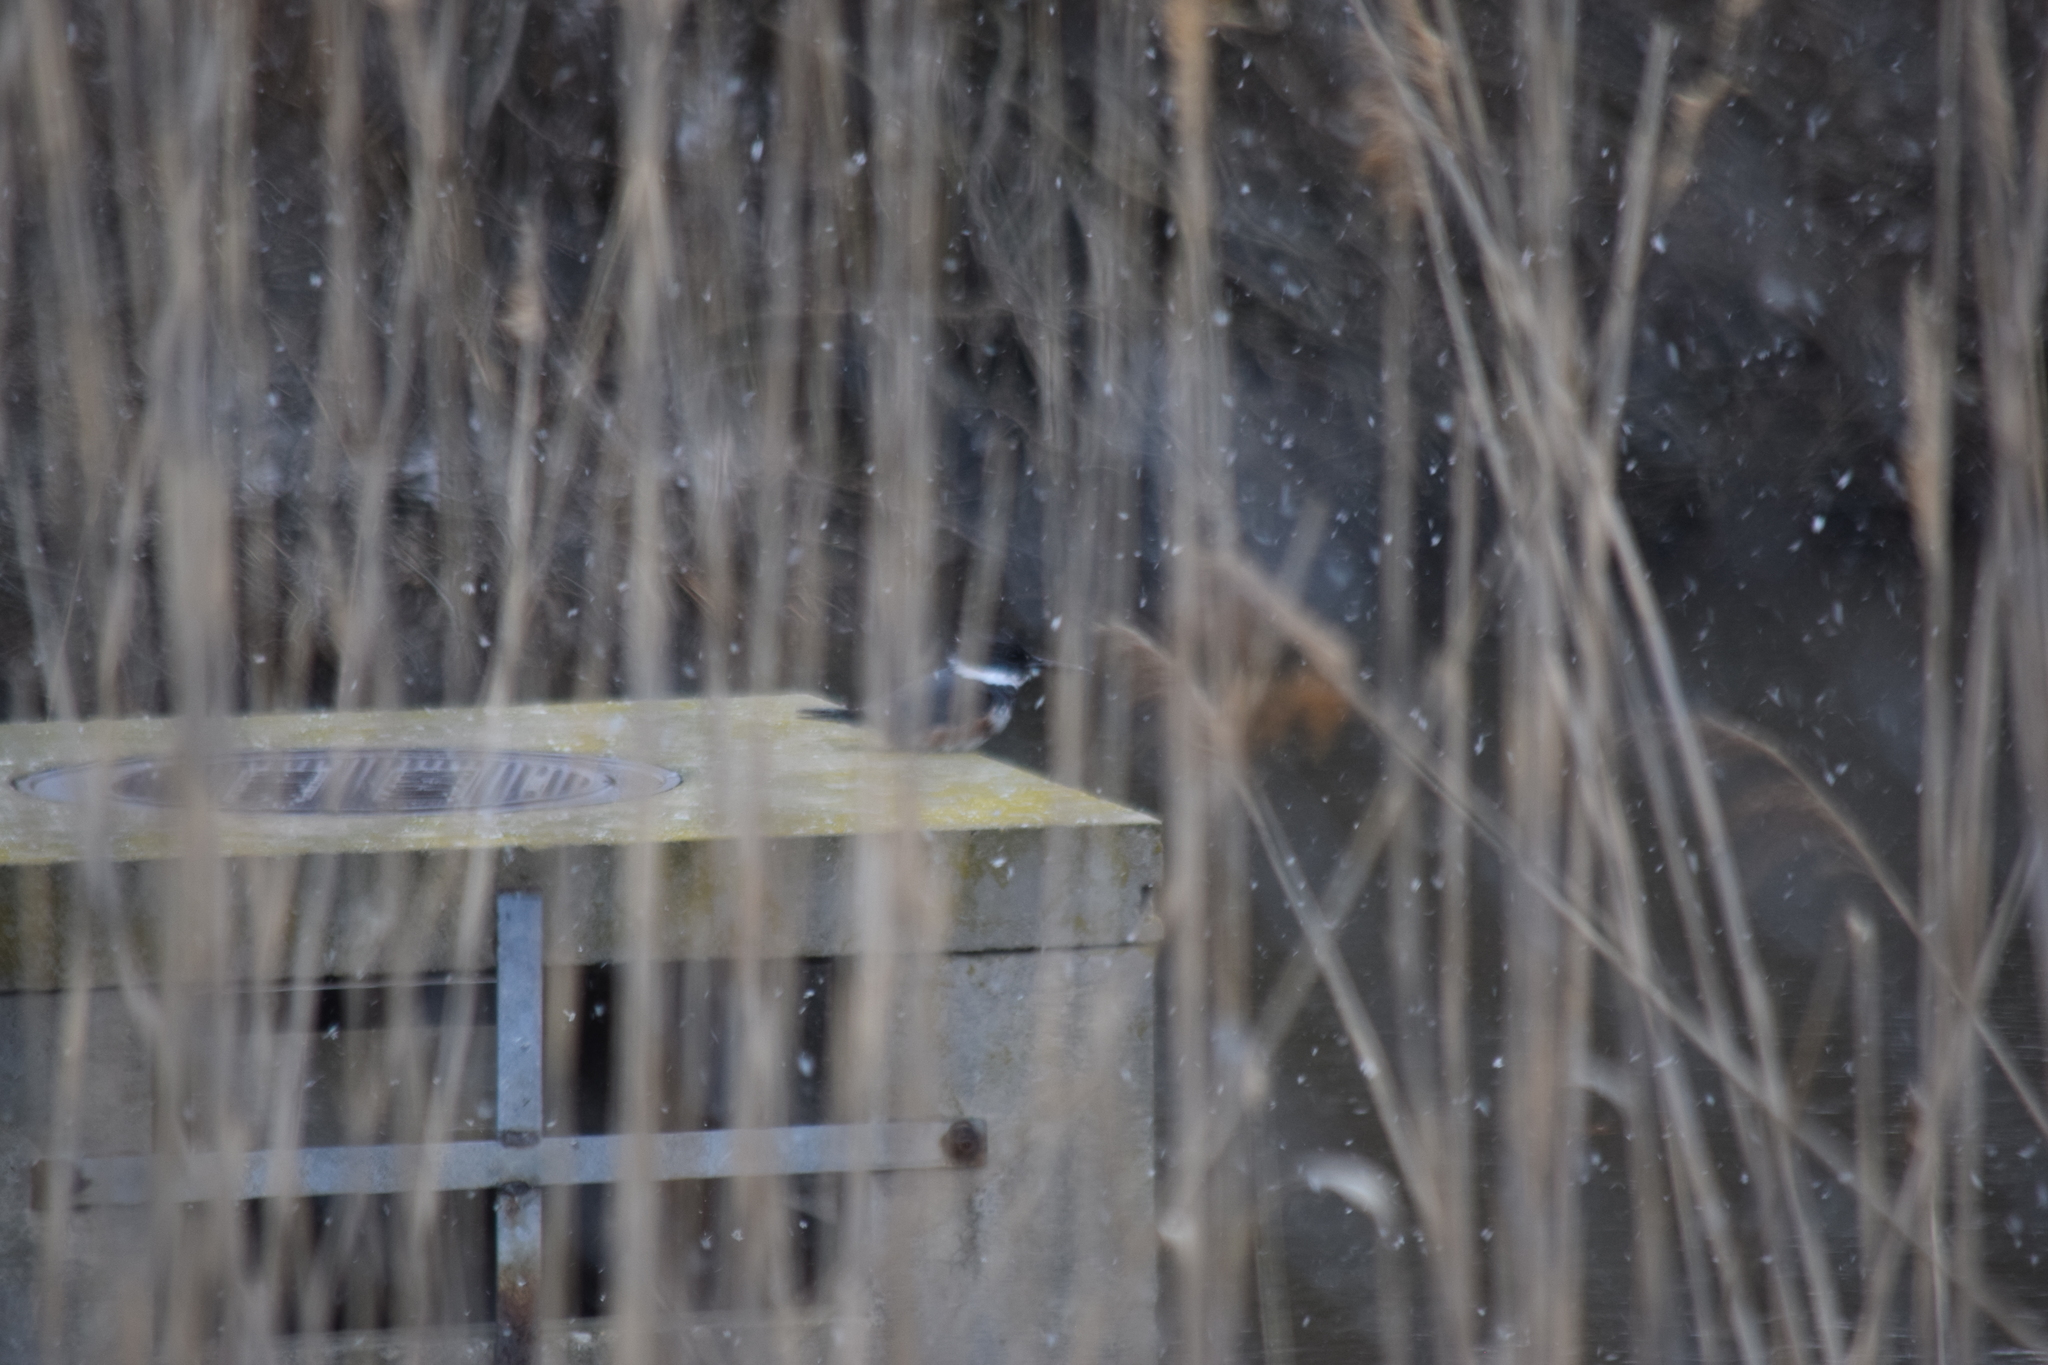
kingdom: Animalia
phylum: Chordata
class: Aves
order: Coraciiformes
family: Alcedinidae
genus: Megaceryle
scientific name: Megaceryle alcyon
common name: Belted kingfisher
